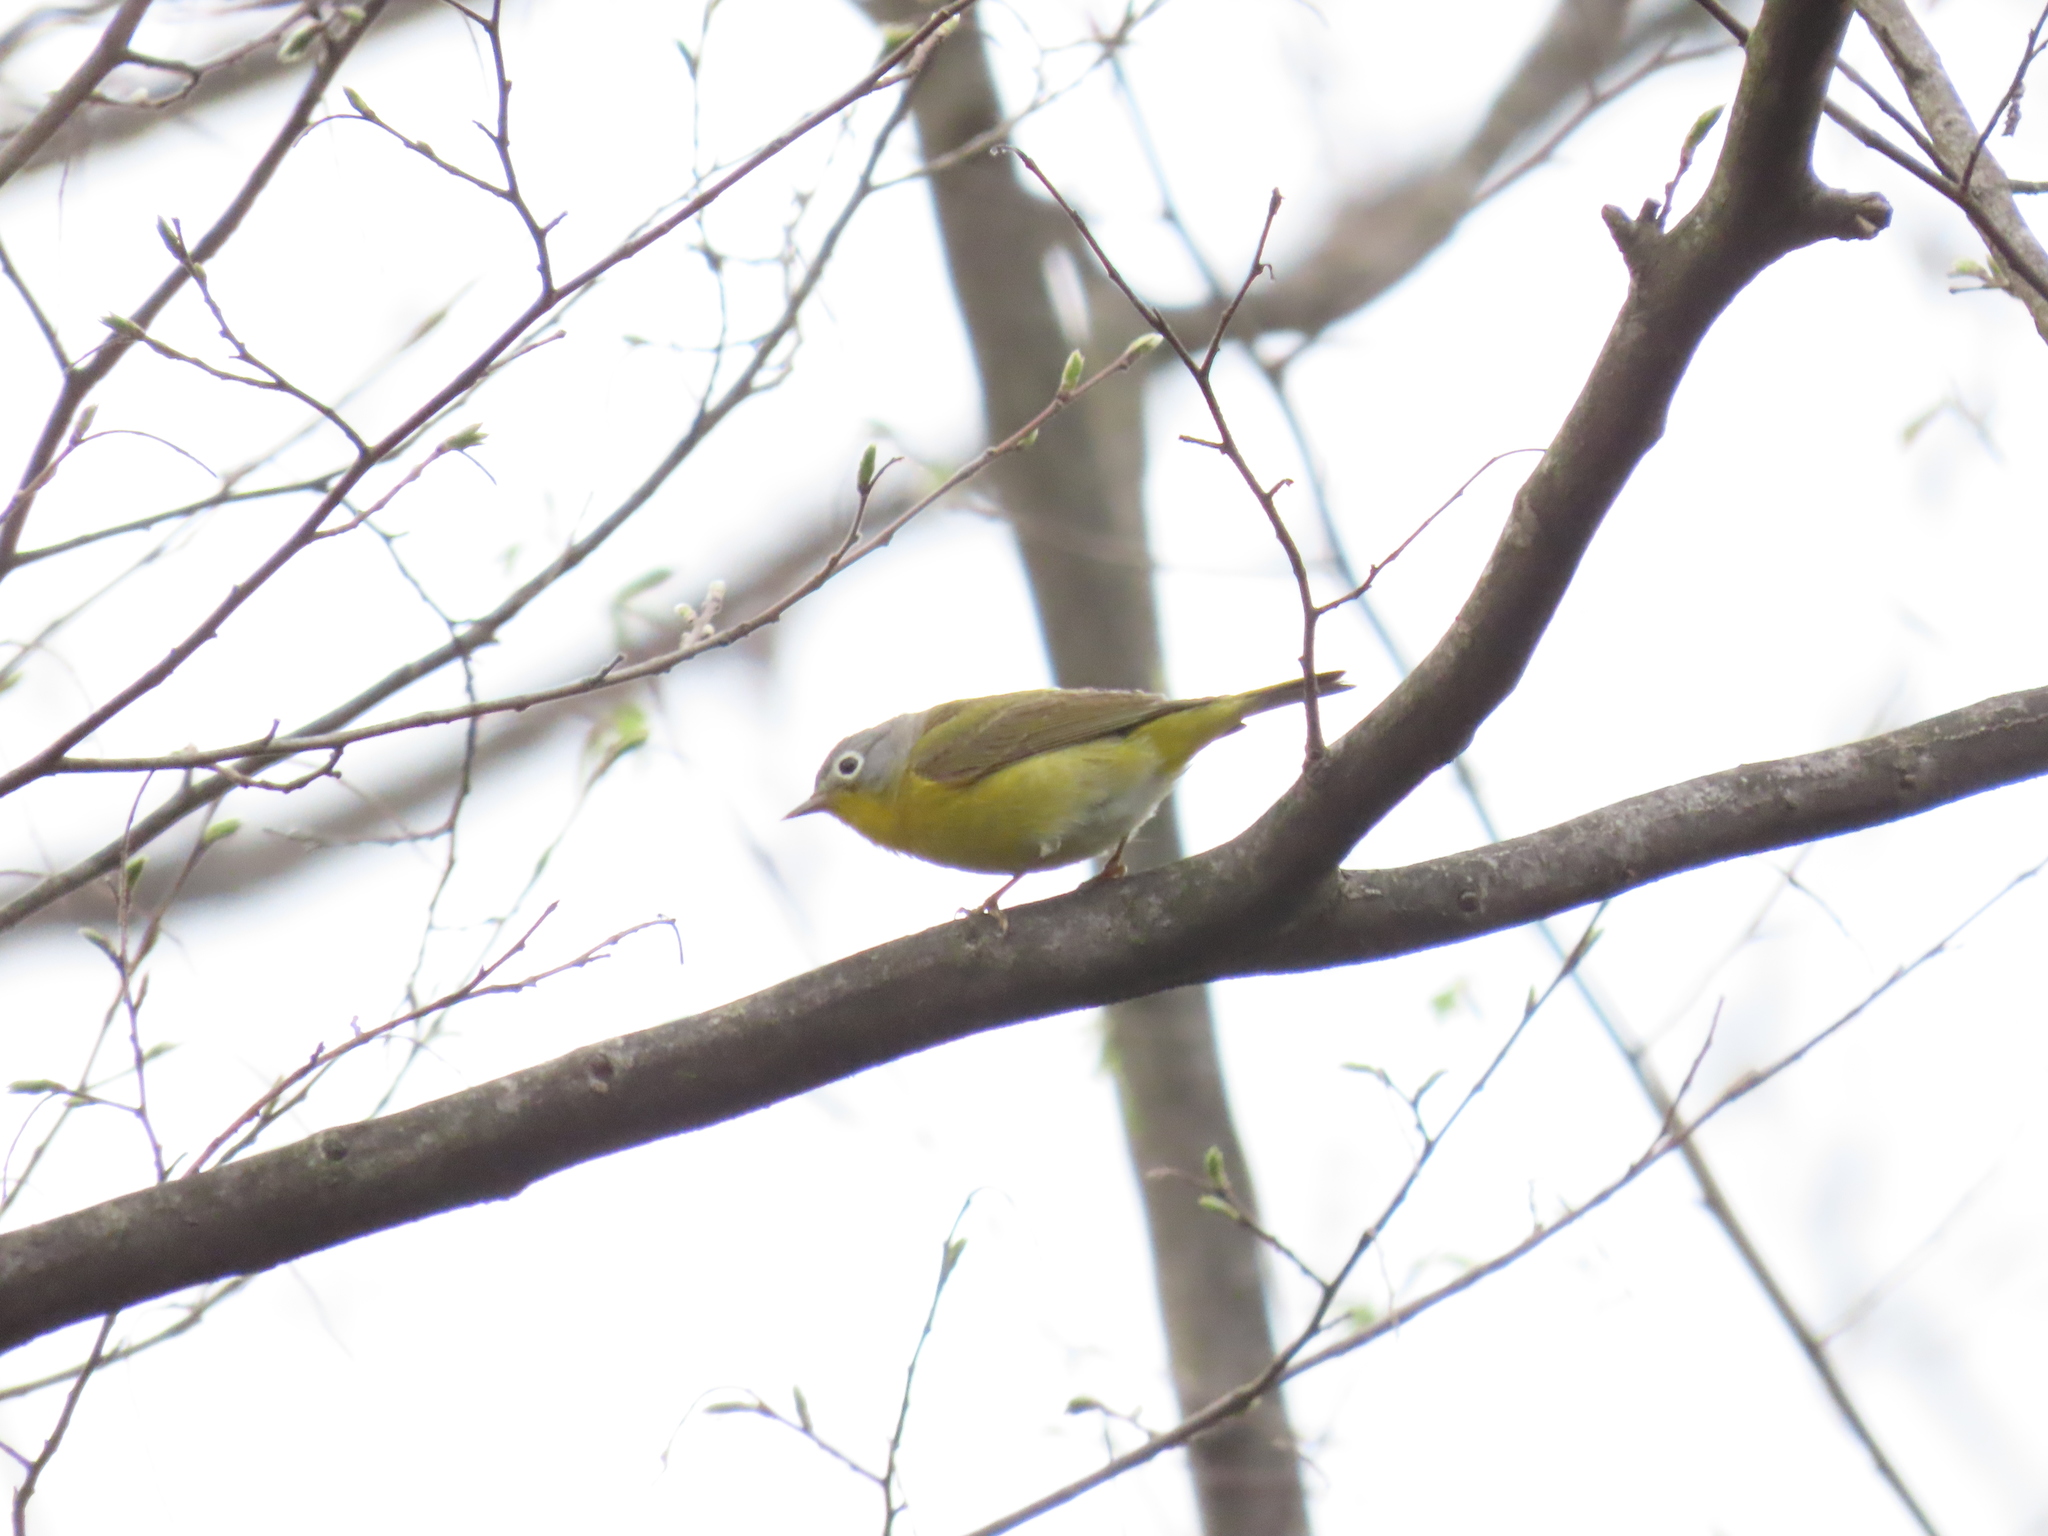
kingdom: Animalia
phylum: Chordata
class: Aves
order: Passeriformes
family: Parulidae
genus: Leiothlypis
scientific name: Leiothlypis ruficapilla
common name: Nashville warbler
